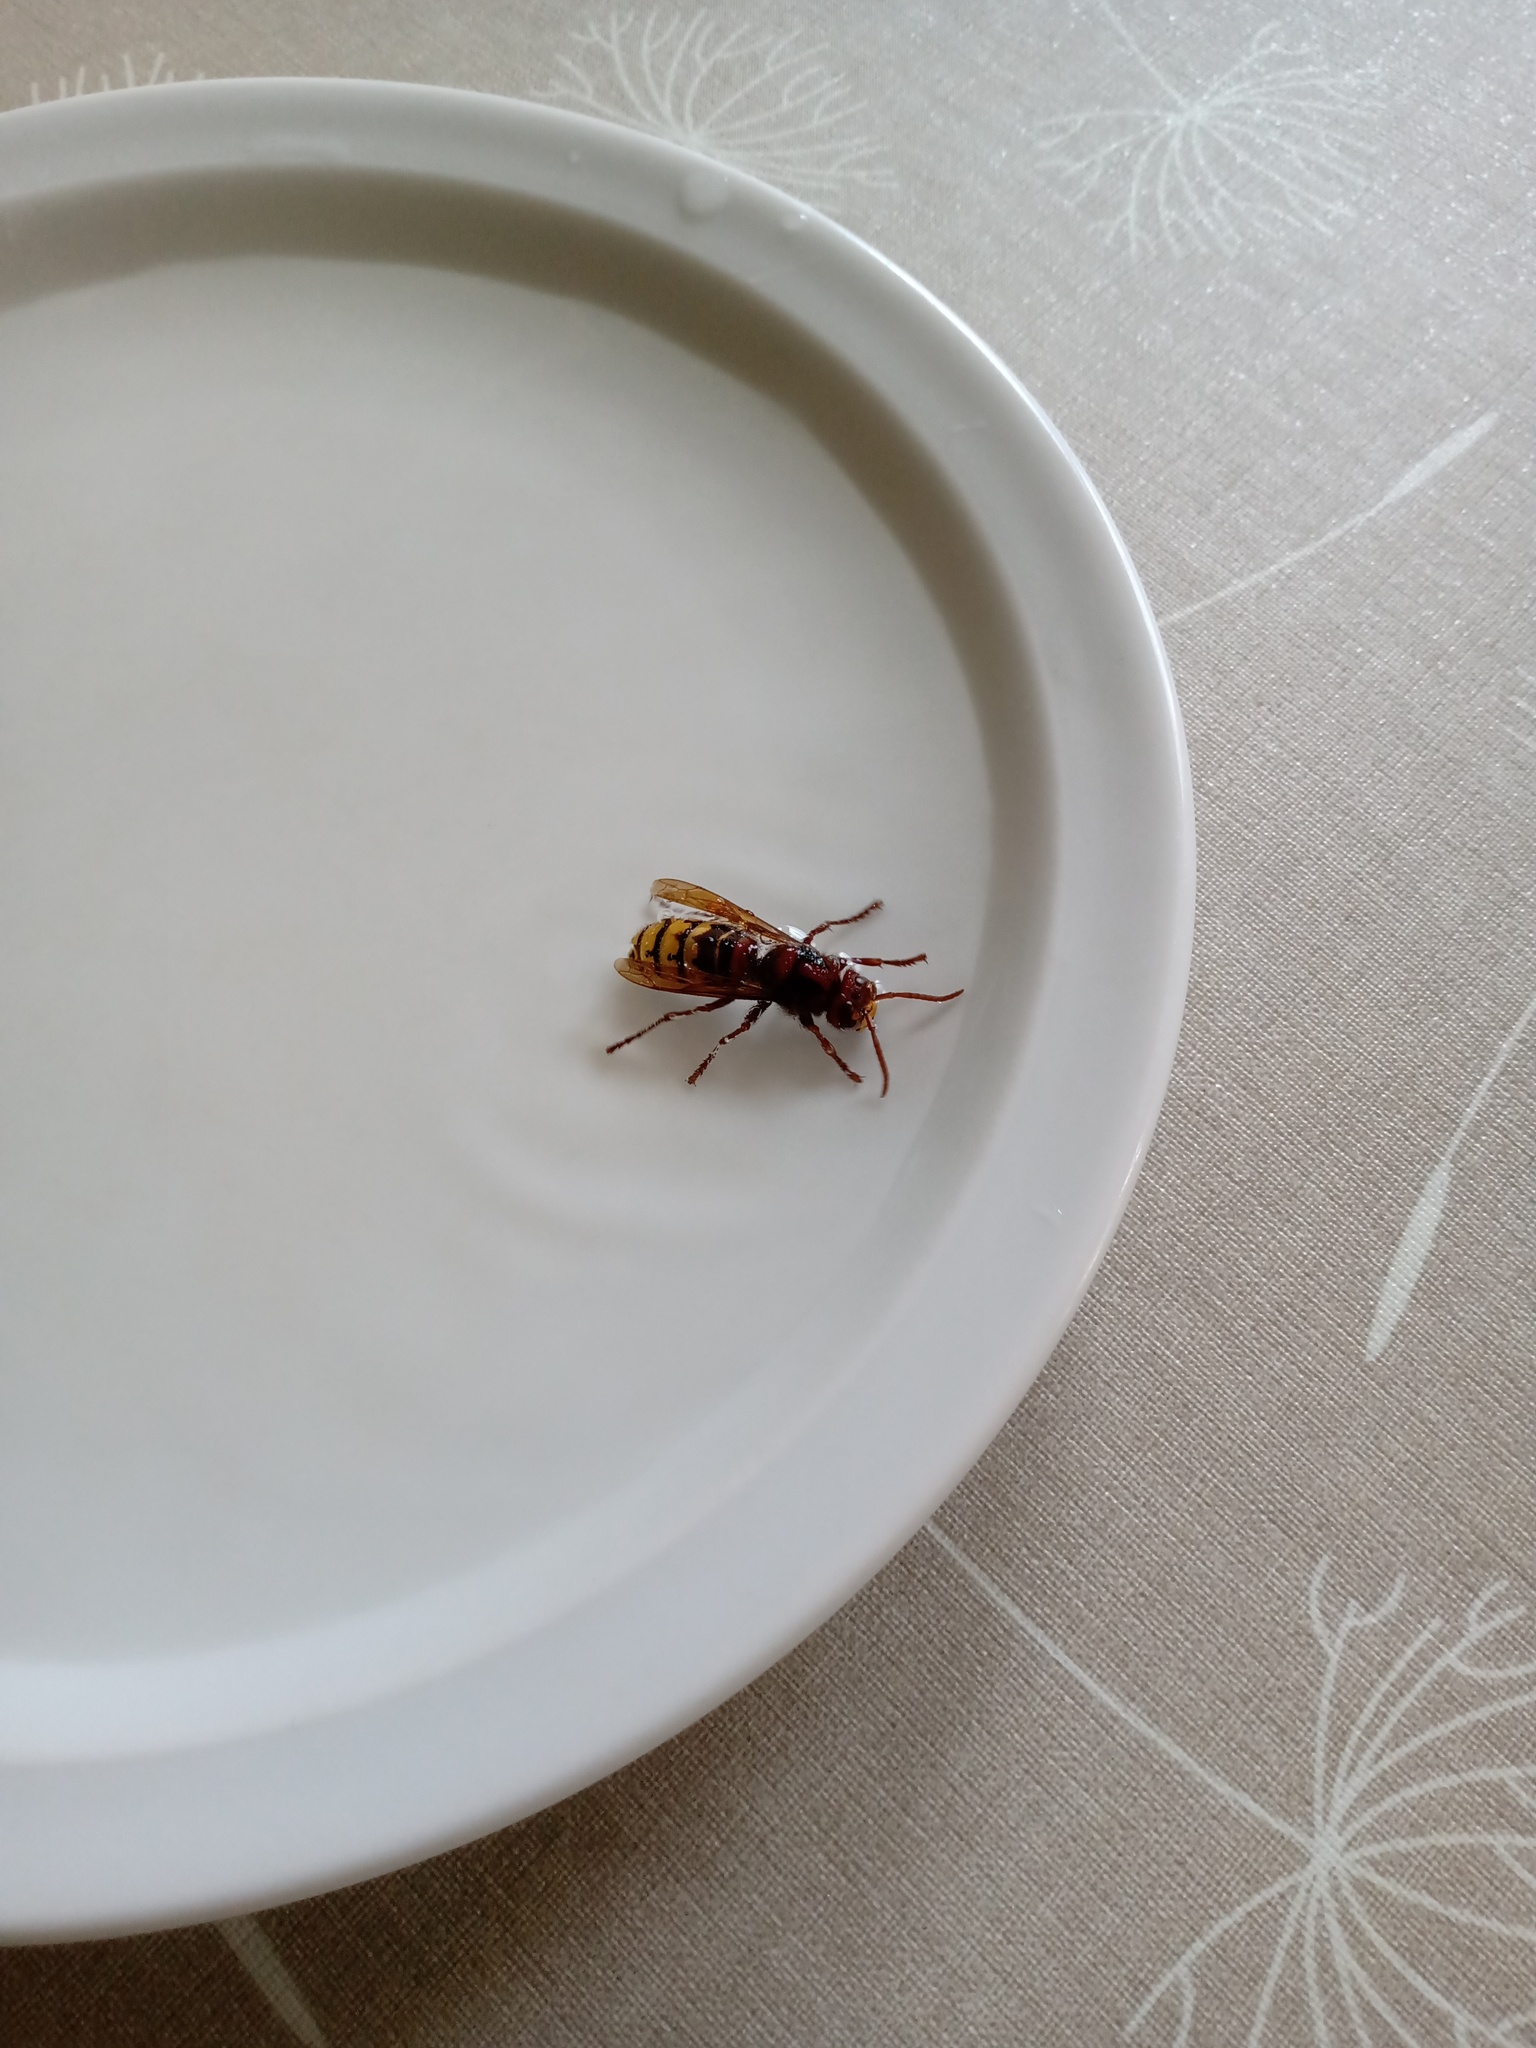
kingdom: Animalia
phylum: Arthropoda
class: Insecta
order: Hymenoptera
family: Vespidae
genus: Vespa
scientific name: Vespa crabro
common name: Hornet
